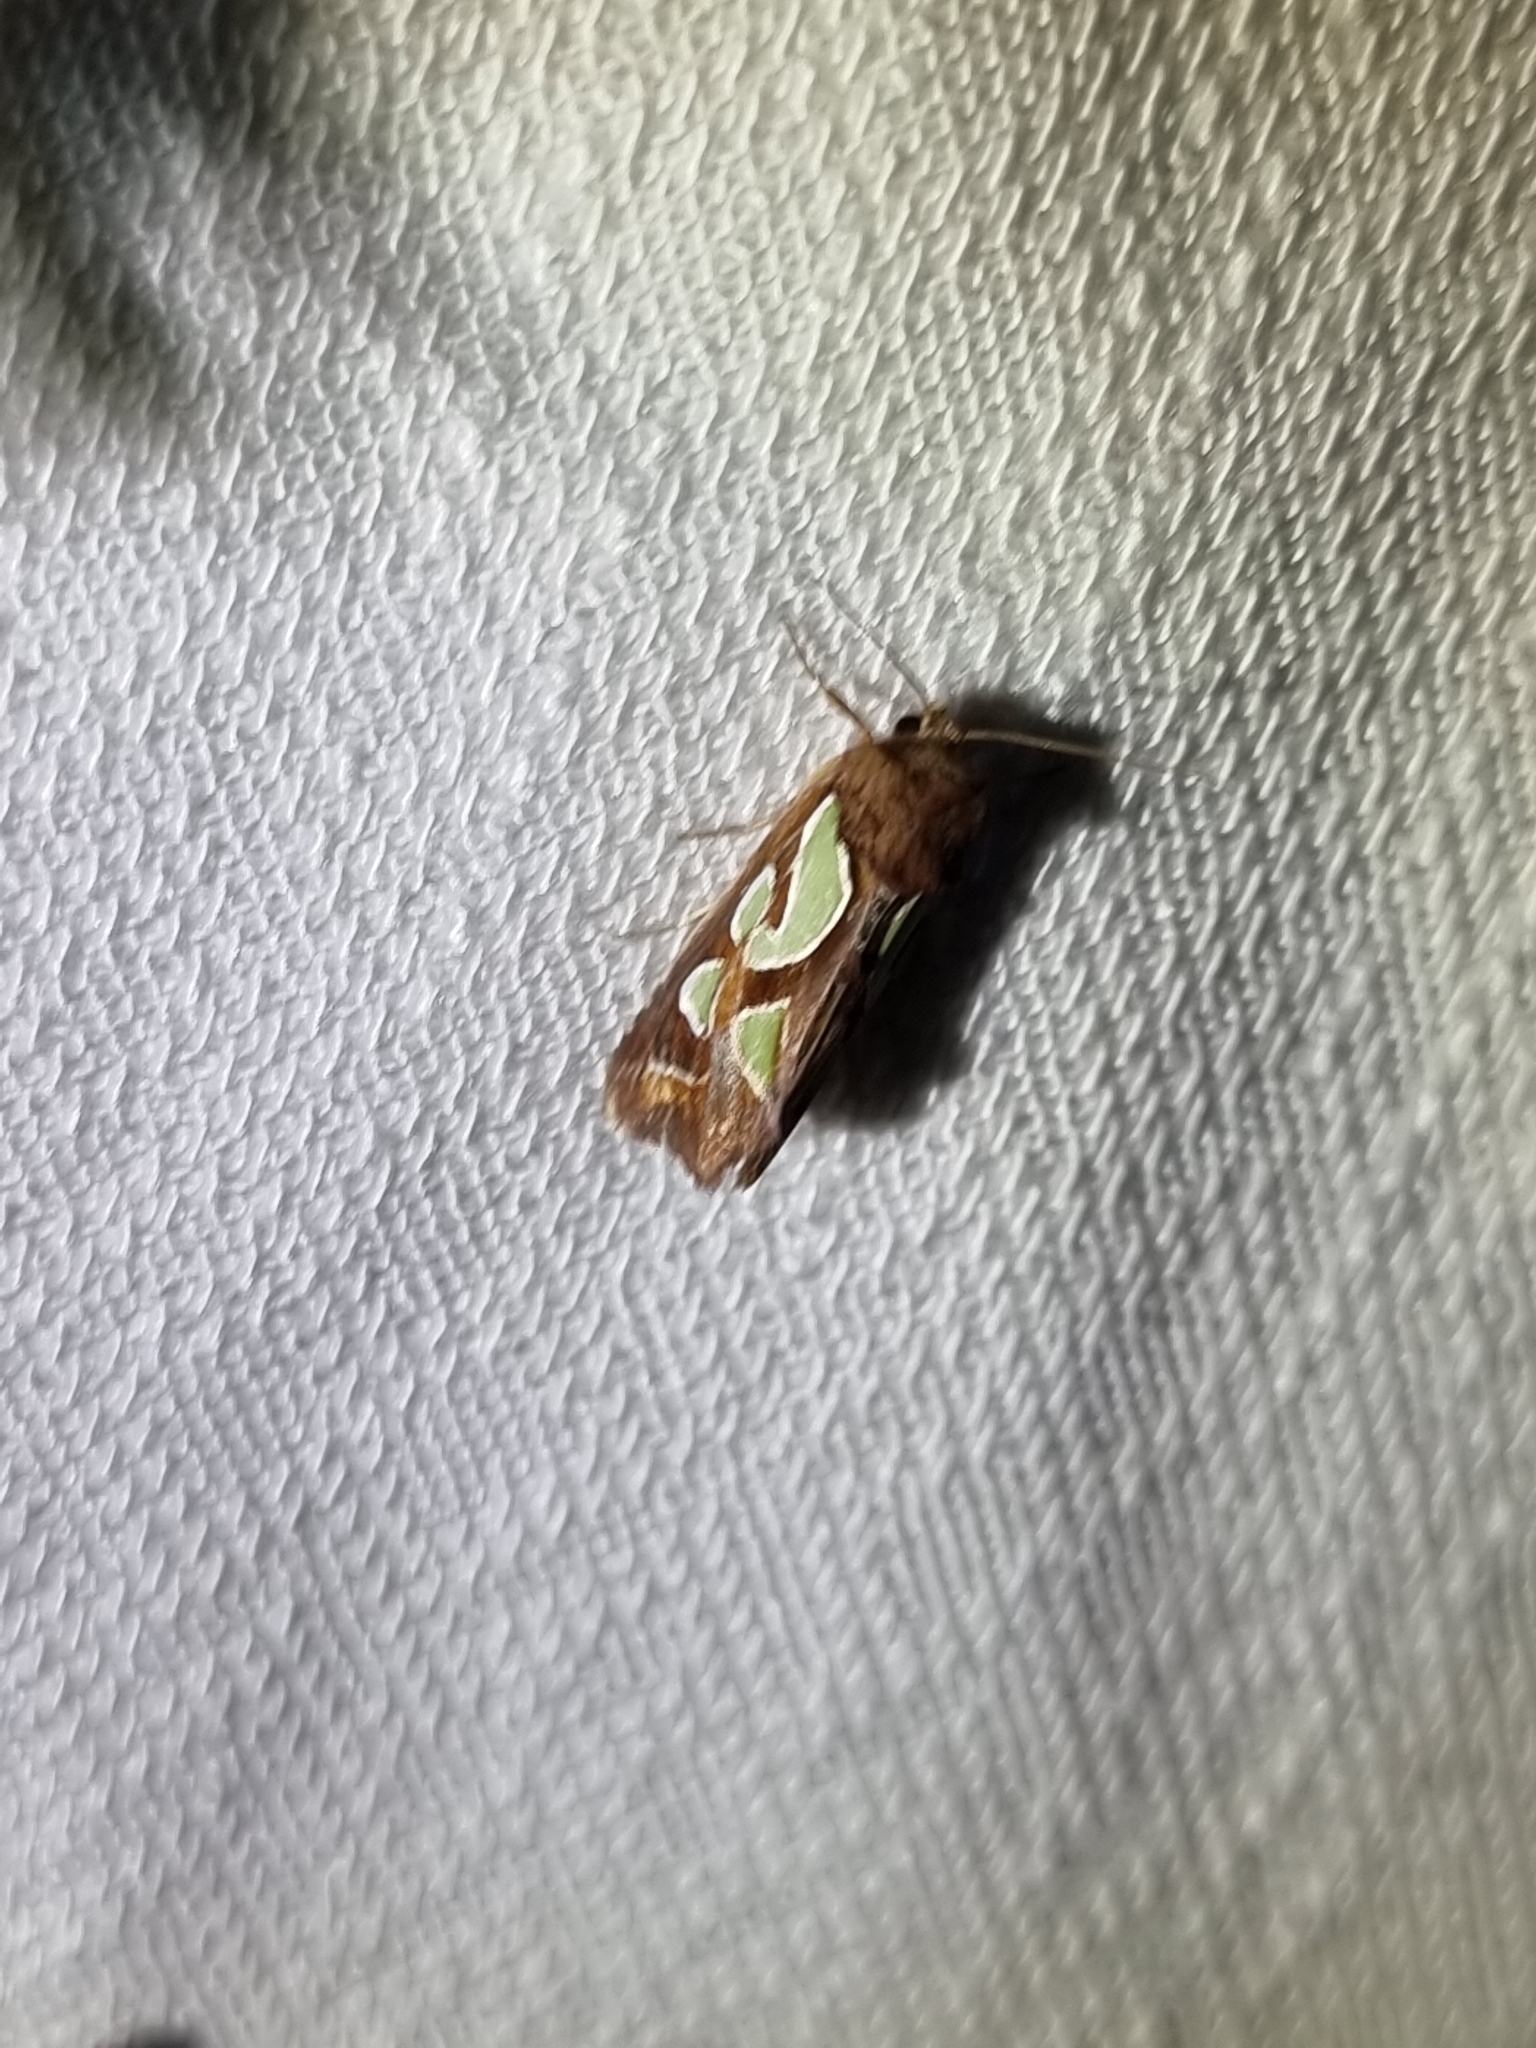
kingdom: Animalia
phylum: Arthropoda
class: Insecta
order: Lepidoptera
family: Noctuidae
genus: Cosmodes
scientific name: Cosmodes elegans
